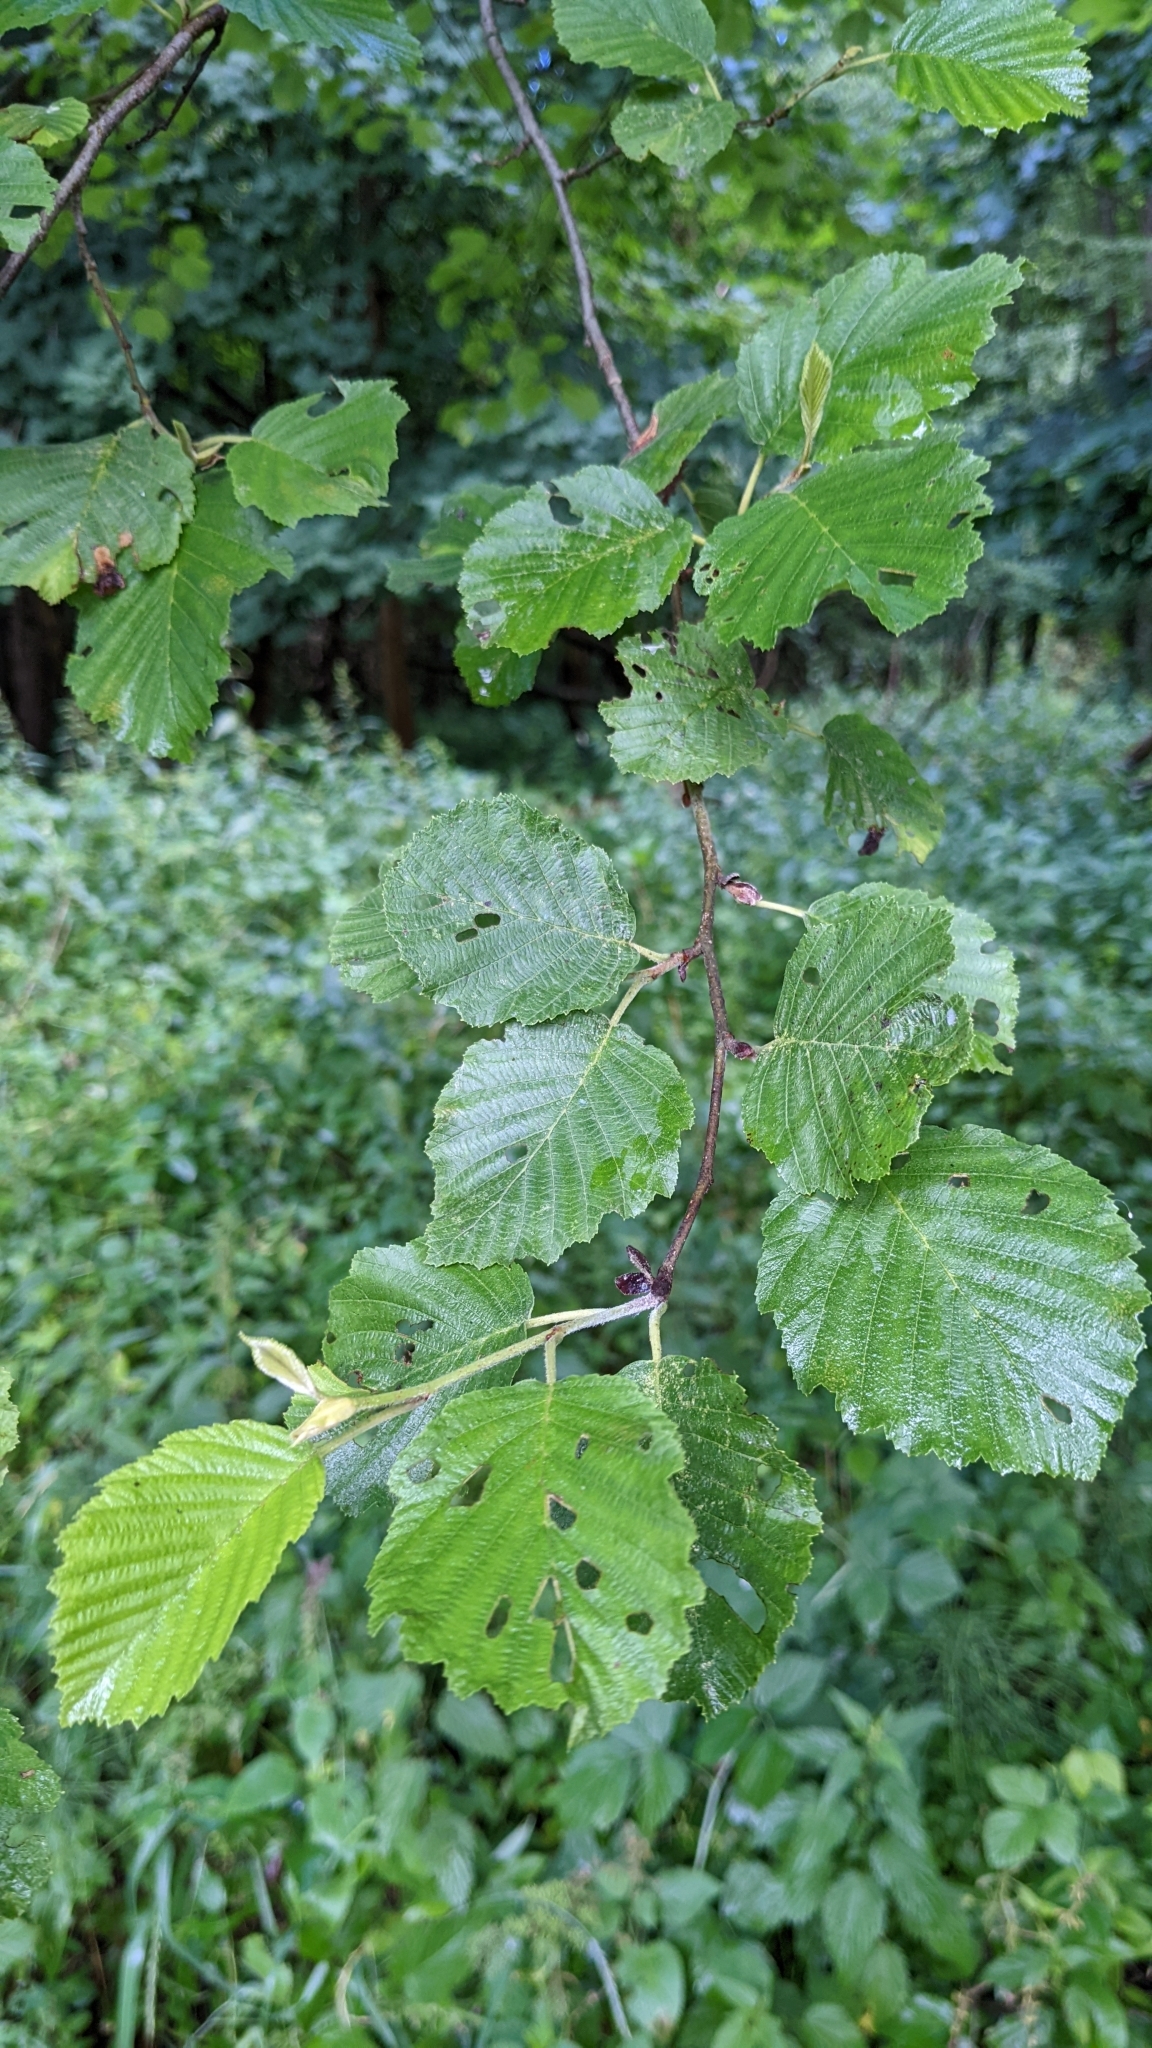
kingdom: Plantae
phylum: Tracheophyta
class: Magnoliopsida
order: Fagales
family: Betulaceae
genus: Alnus
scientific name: Alnus incana
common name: Grey alder
